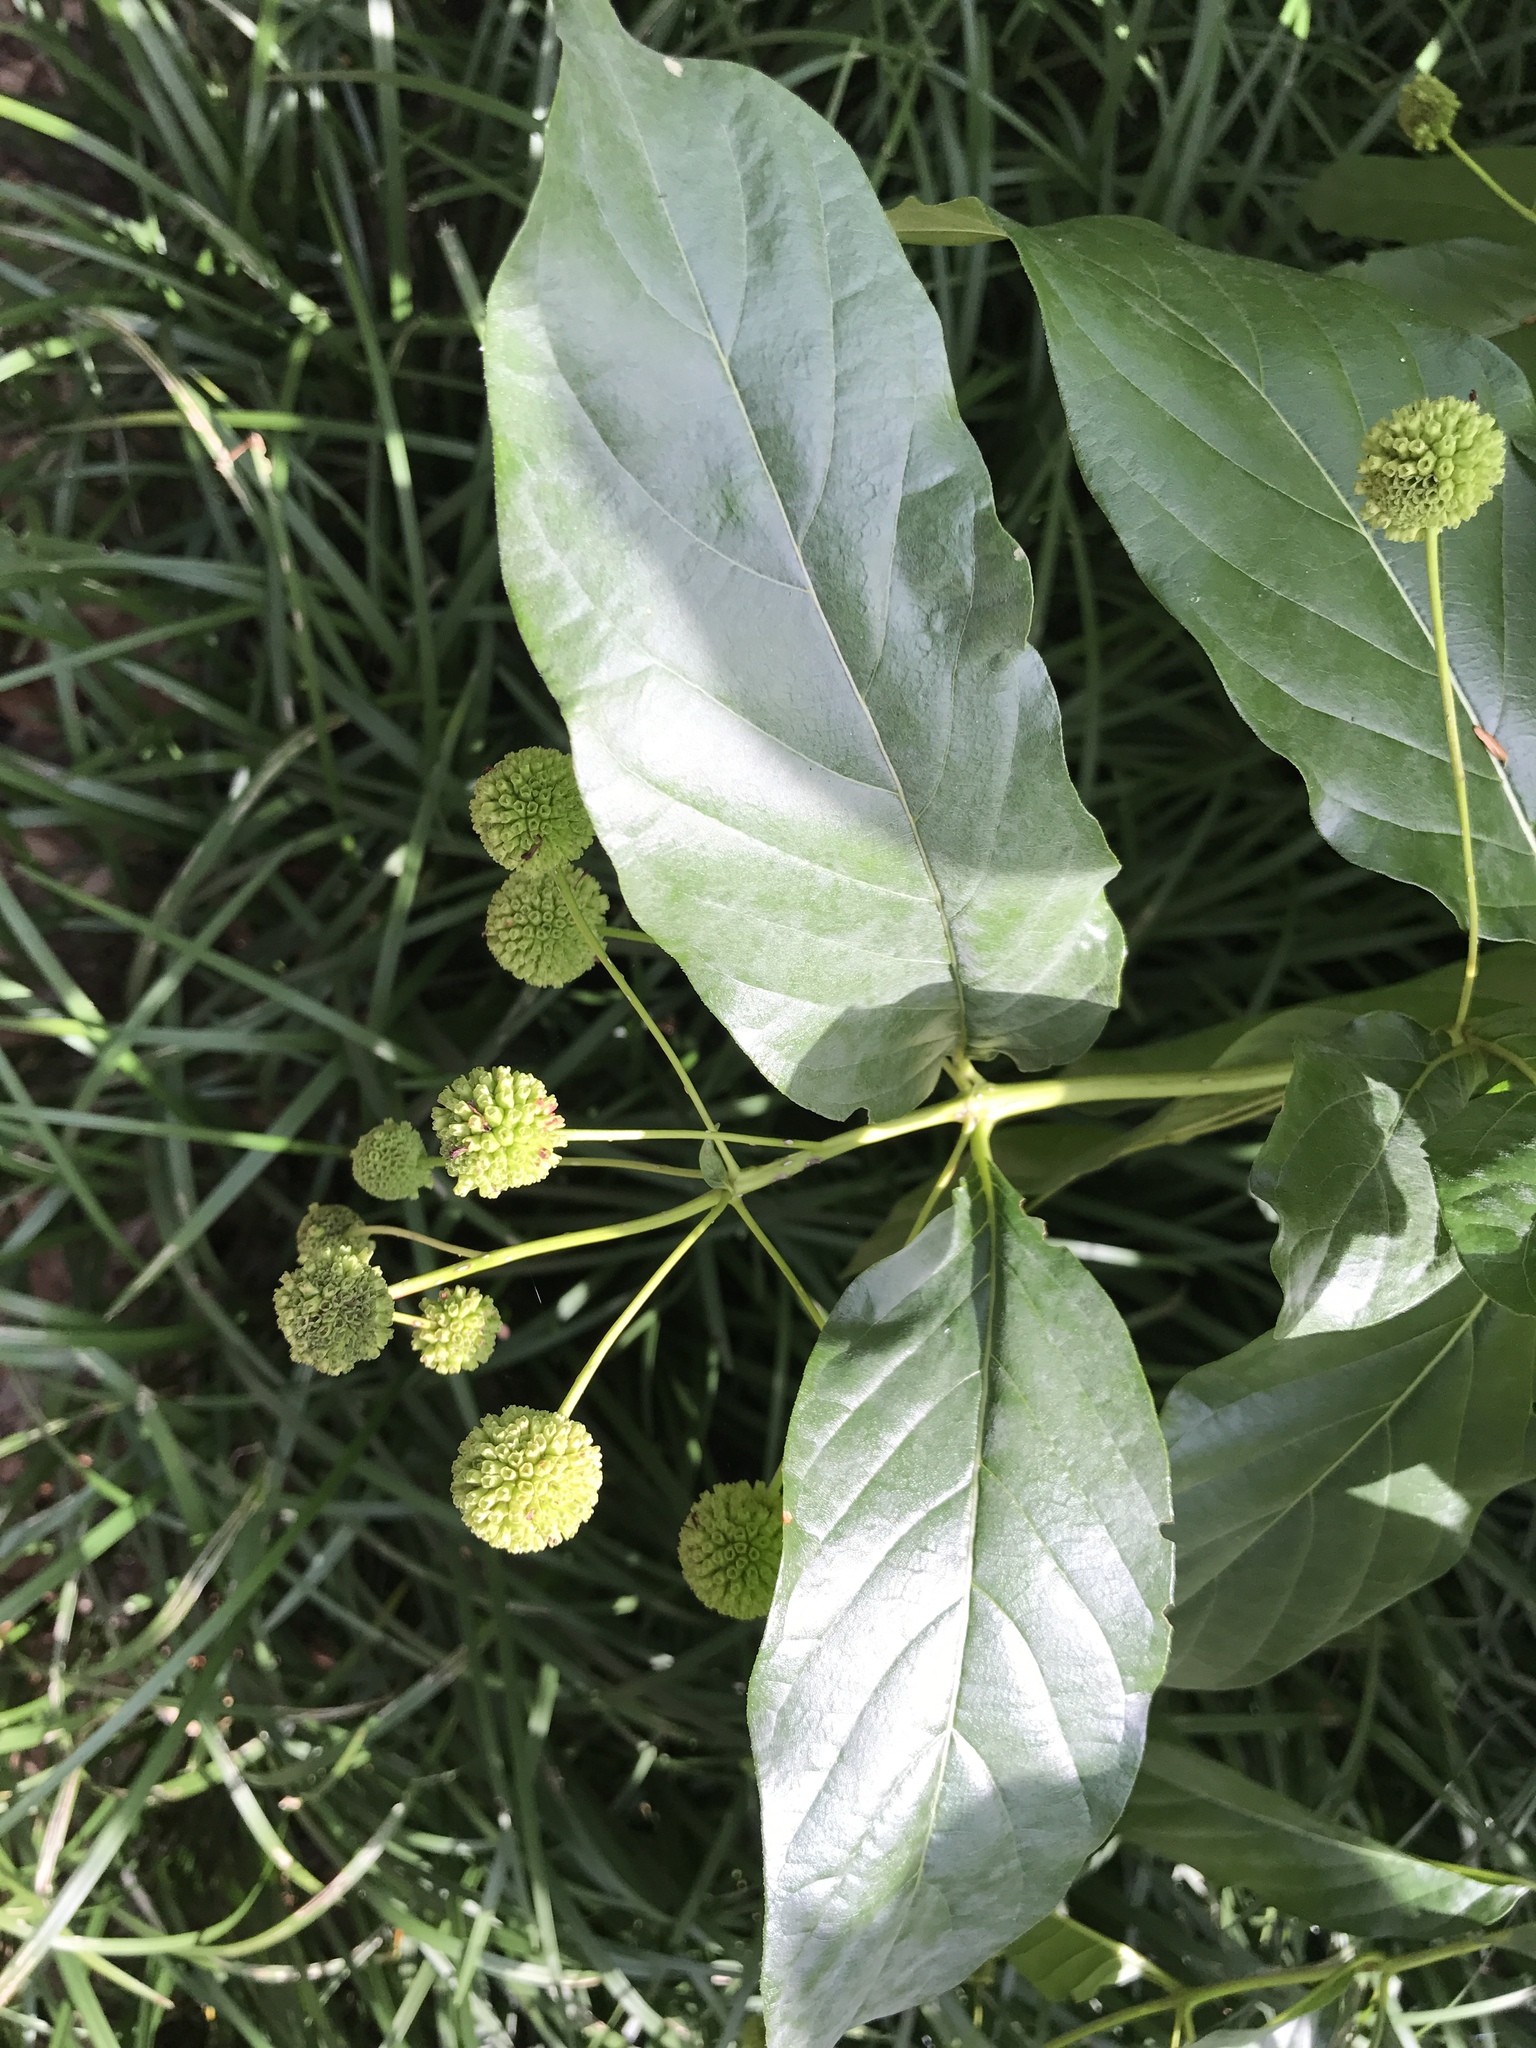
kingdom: Plantae
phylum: Tracheophyta
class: Magnoliopsida
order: Gentianales
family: Rubiaceae
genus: Cephalanthus
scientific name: Cephalanthus occidentalis
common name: Button-willow
